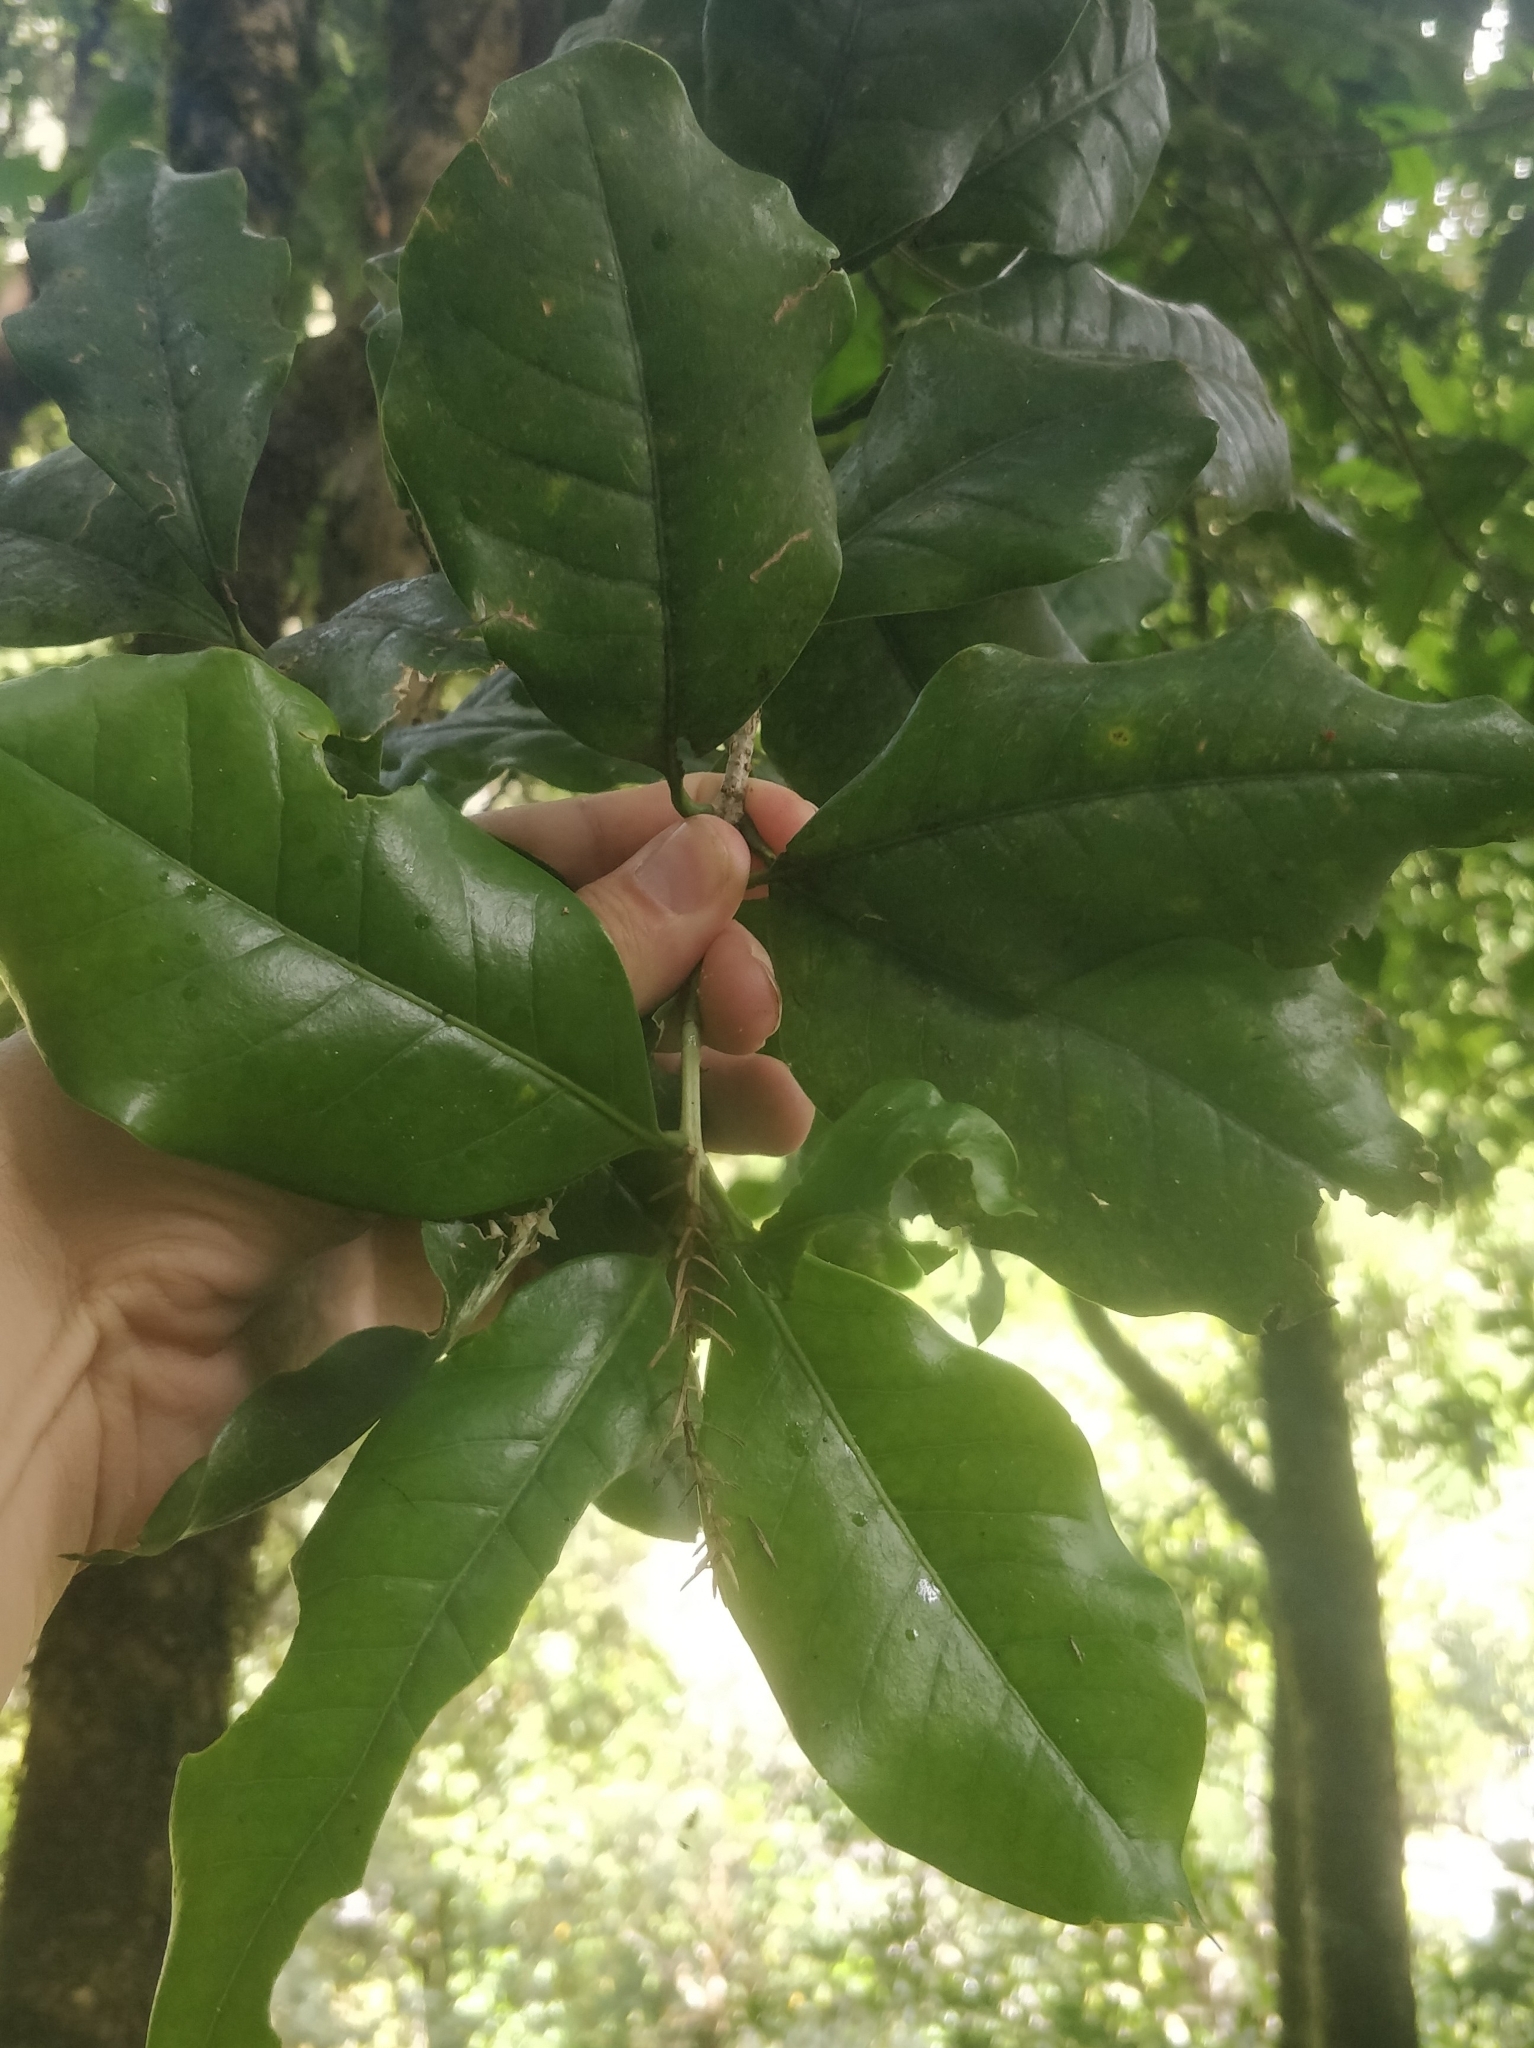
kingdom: Plantae
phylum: Tracheophyta
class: Magnoliopsida
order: Lamiales
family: Oleaceae
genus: Picconia
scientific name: Picconia excelsa
